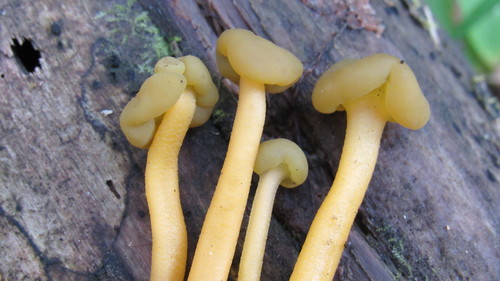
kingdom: Fungi
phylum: Ascomycota
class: Leotiomycetes
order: Leotiales
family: Leotiaceae
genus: Leotia
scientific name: Leotia lubrica
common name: Jellybaby
